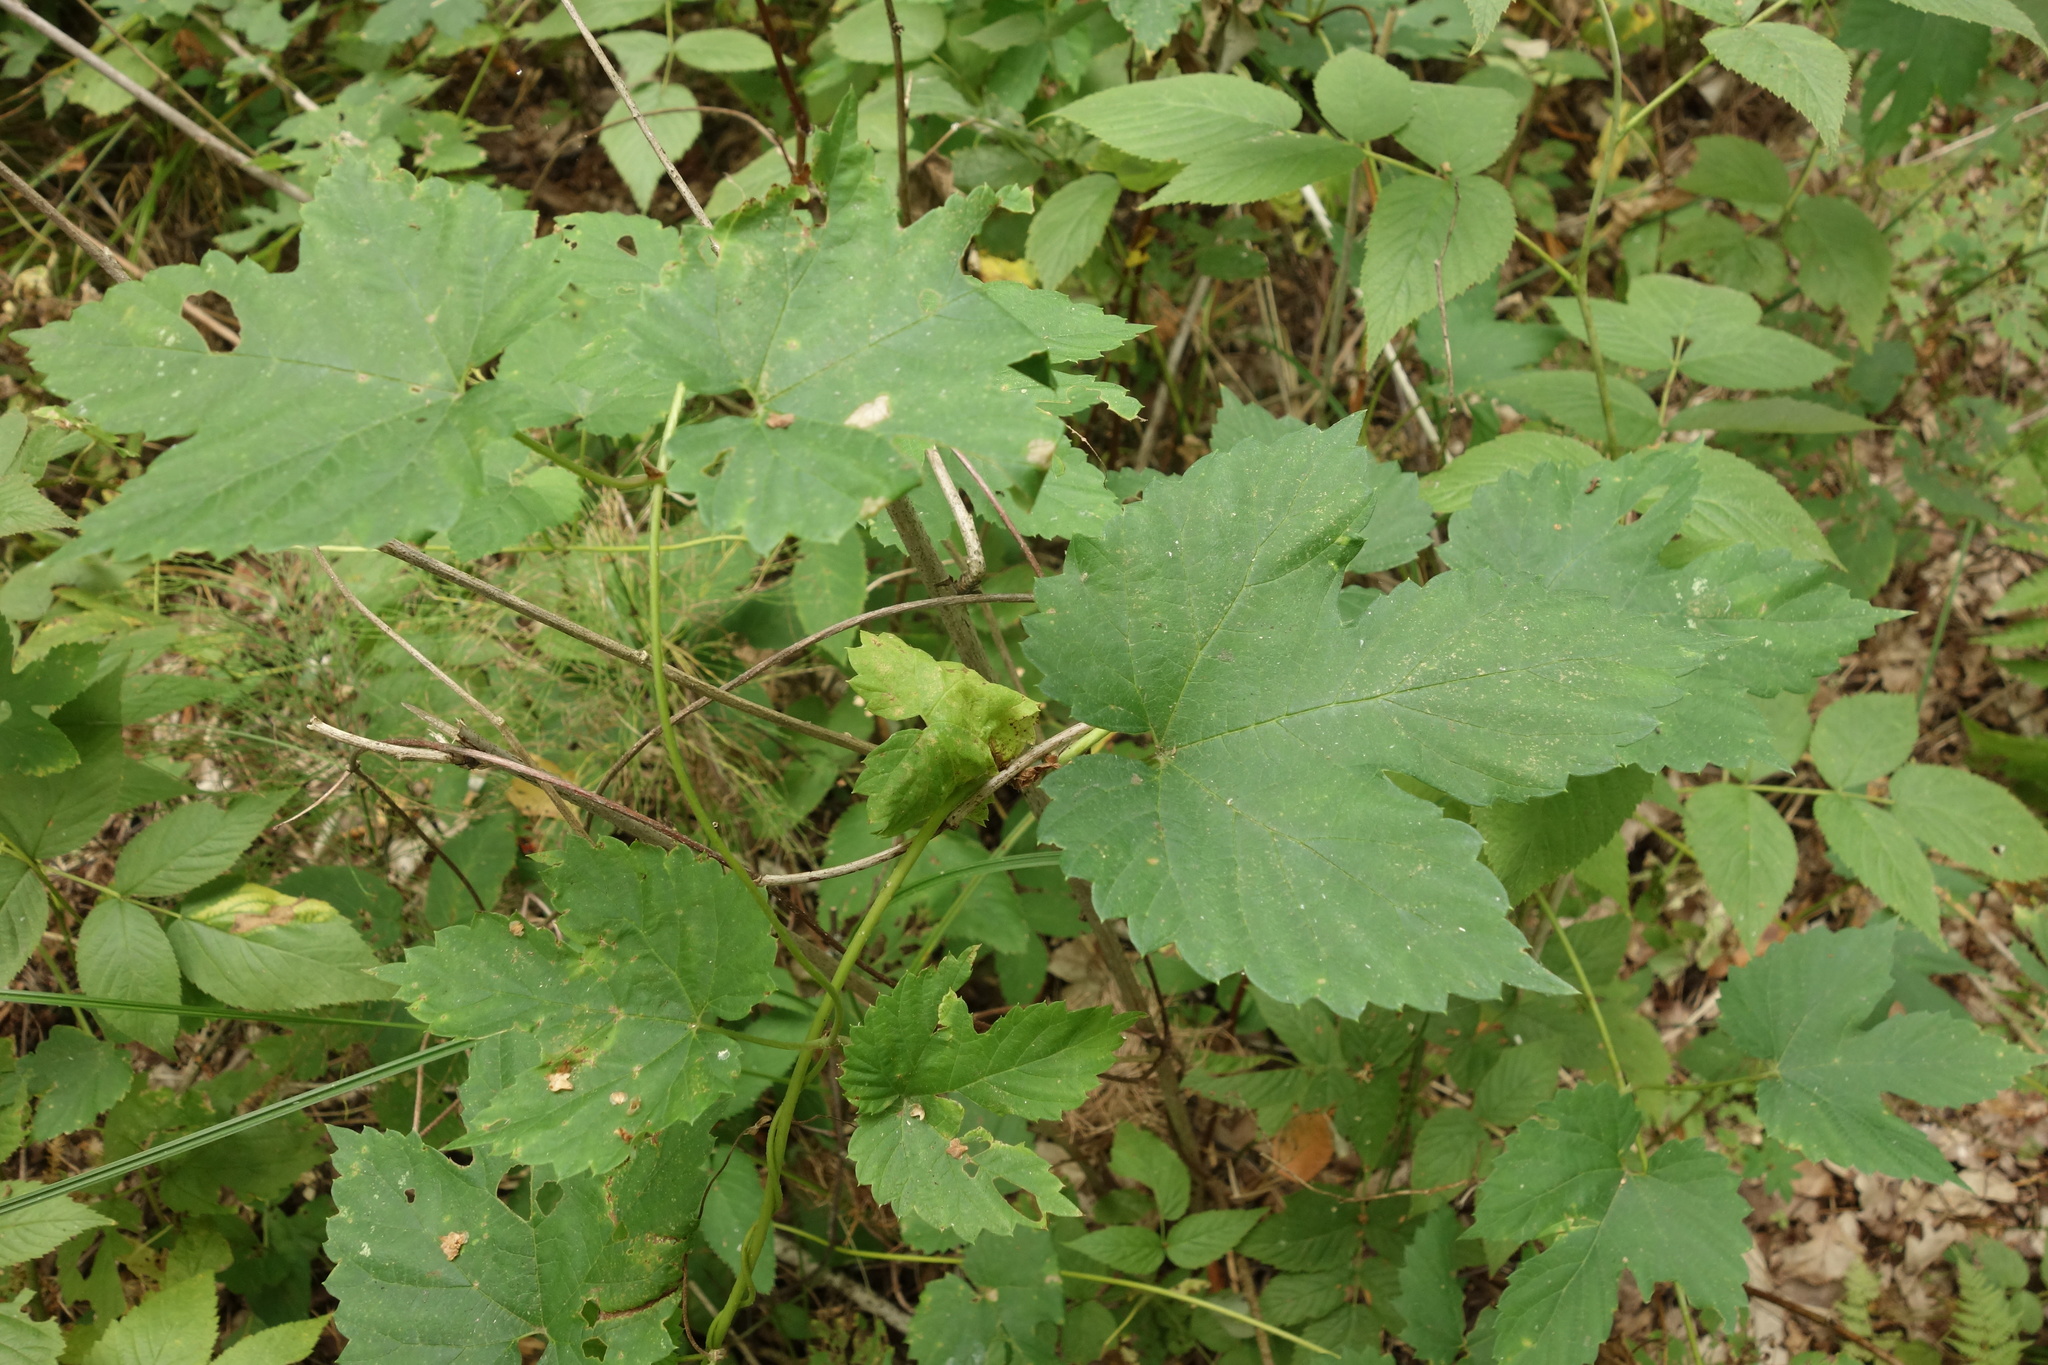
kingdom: Plantae
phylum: Tracheophyta
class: Magnoliopsida
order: Rosales
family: Cannabaceae
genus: Humulus
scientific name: Humulus lupulus
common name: Hop
